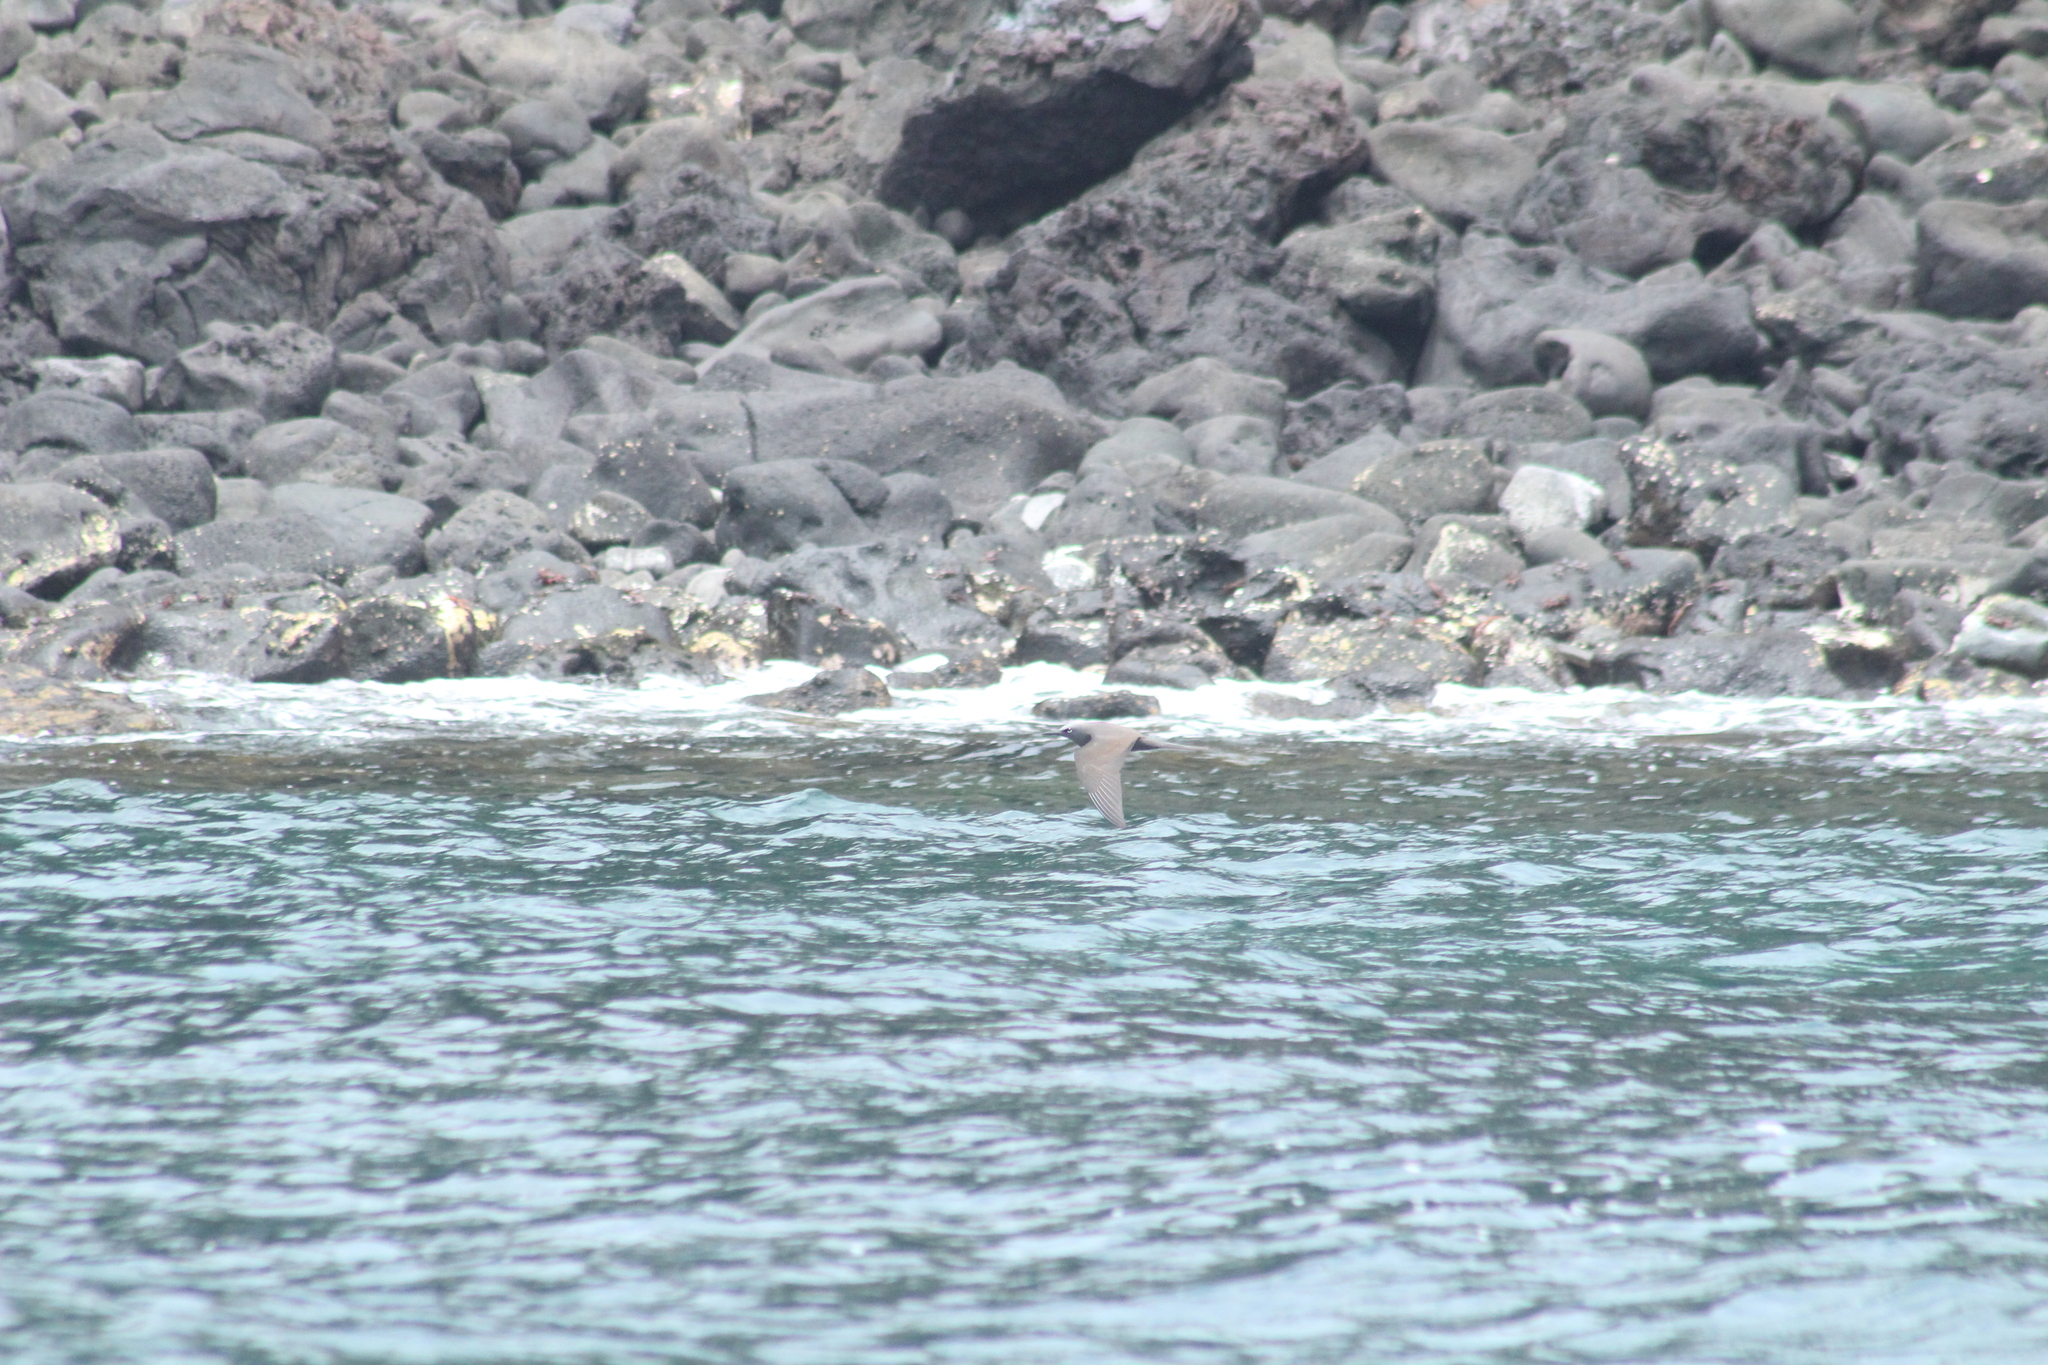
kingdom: Animalia
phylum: Chordata
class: Aves
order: Charadriiformes
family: Laridae
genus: Anous
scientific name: Anous stolidus
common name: Brown noddy
